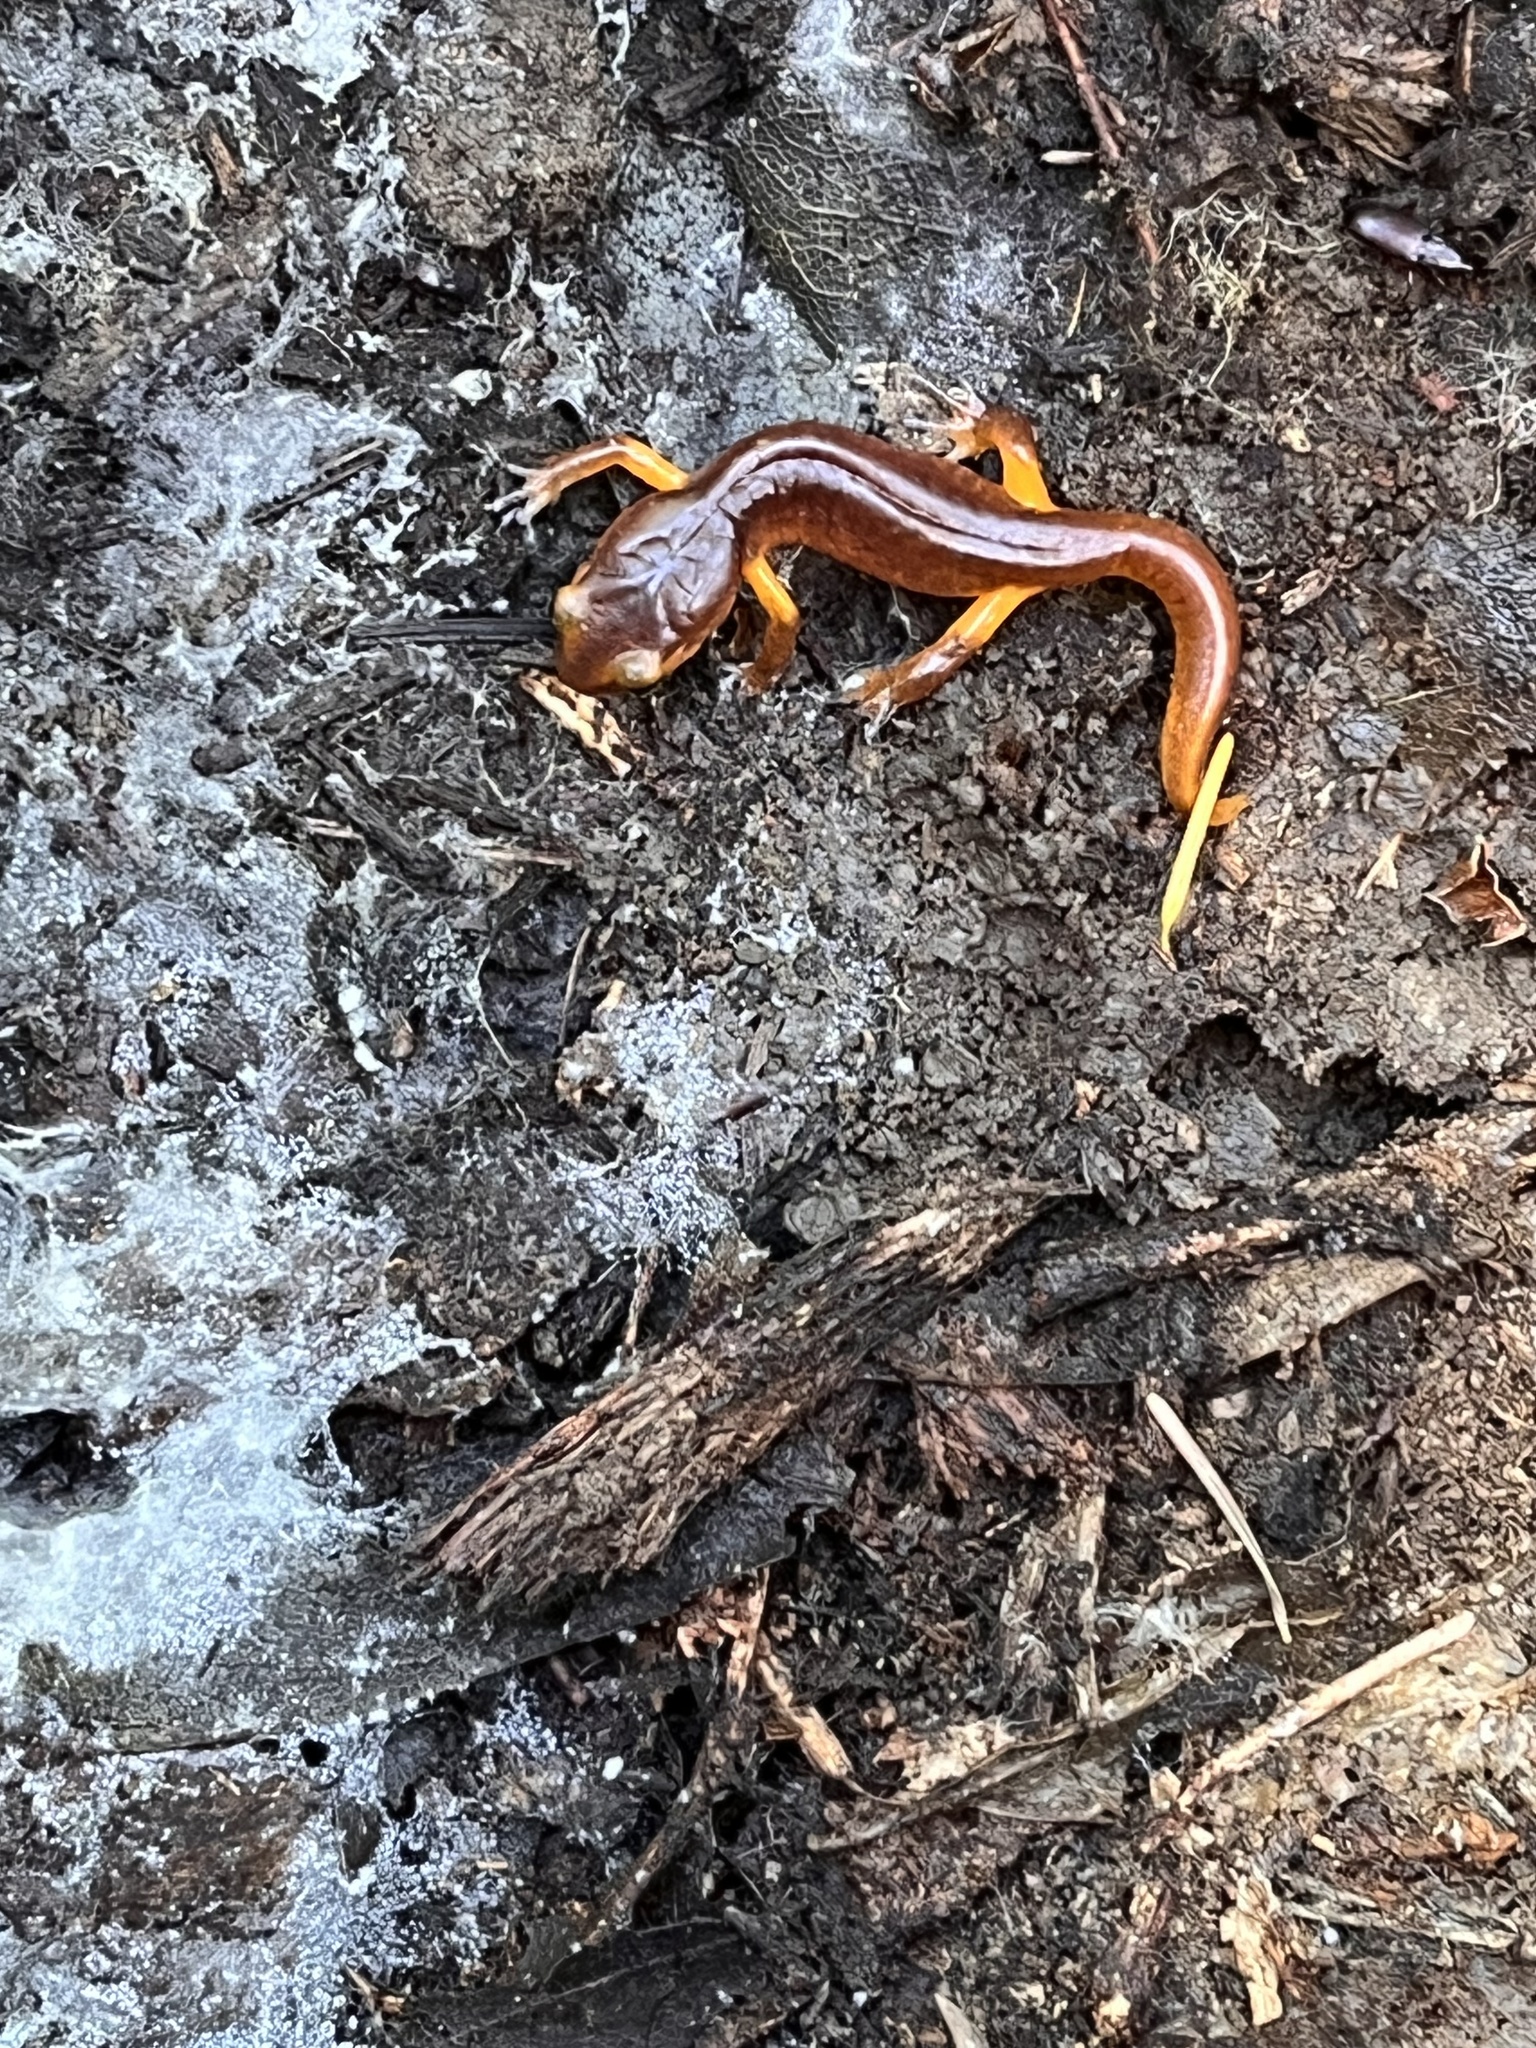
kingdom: Animalia
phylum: Chordata
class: Amphibia
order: Caudata
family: Plethodontidae
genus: Ensatina
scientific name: Ensatina eschscholtzii
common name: Ensatina
